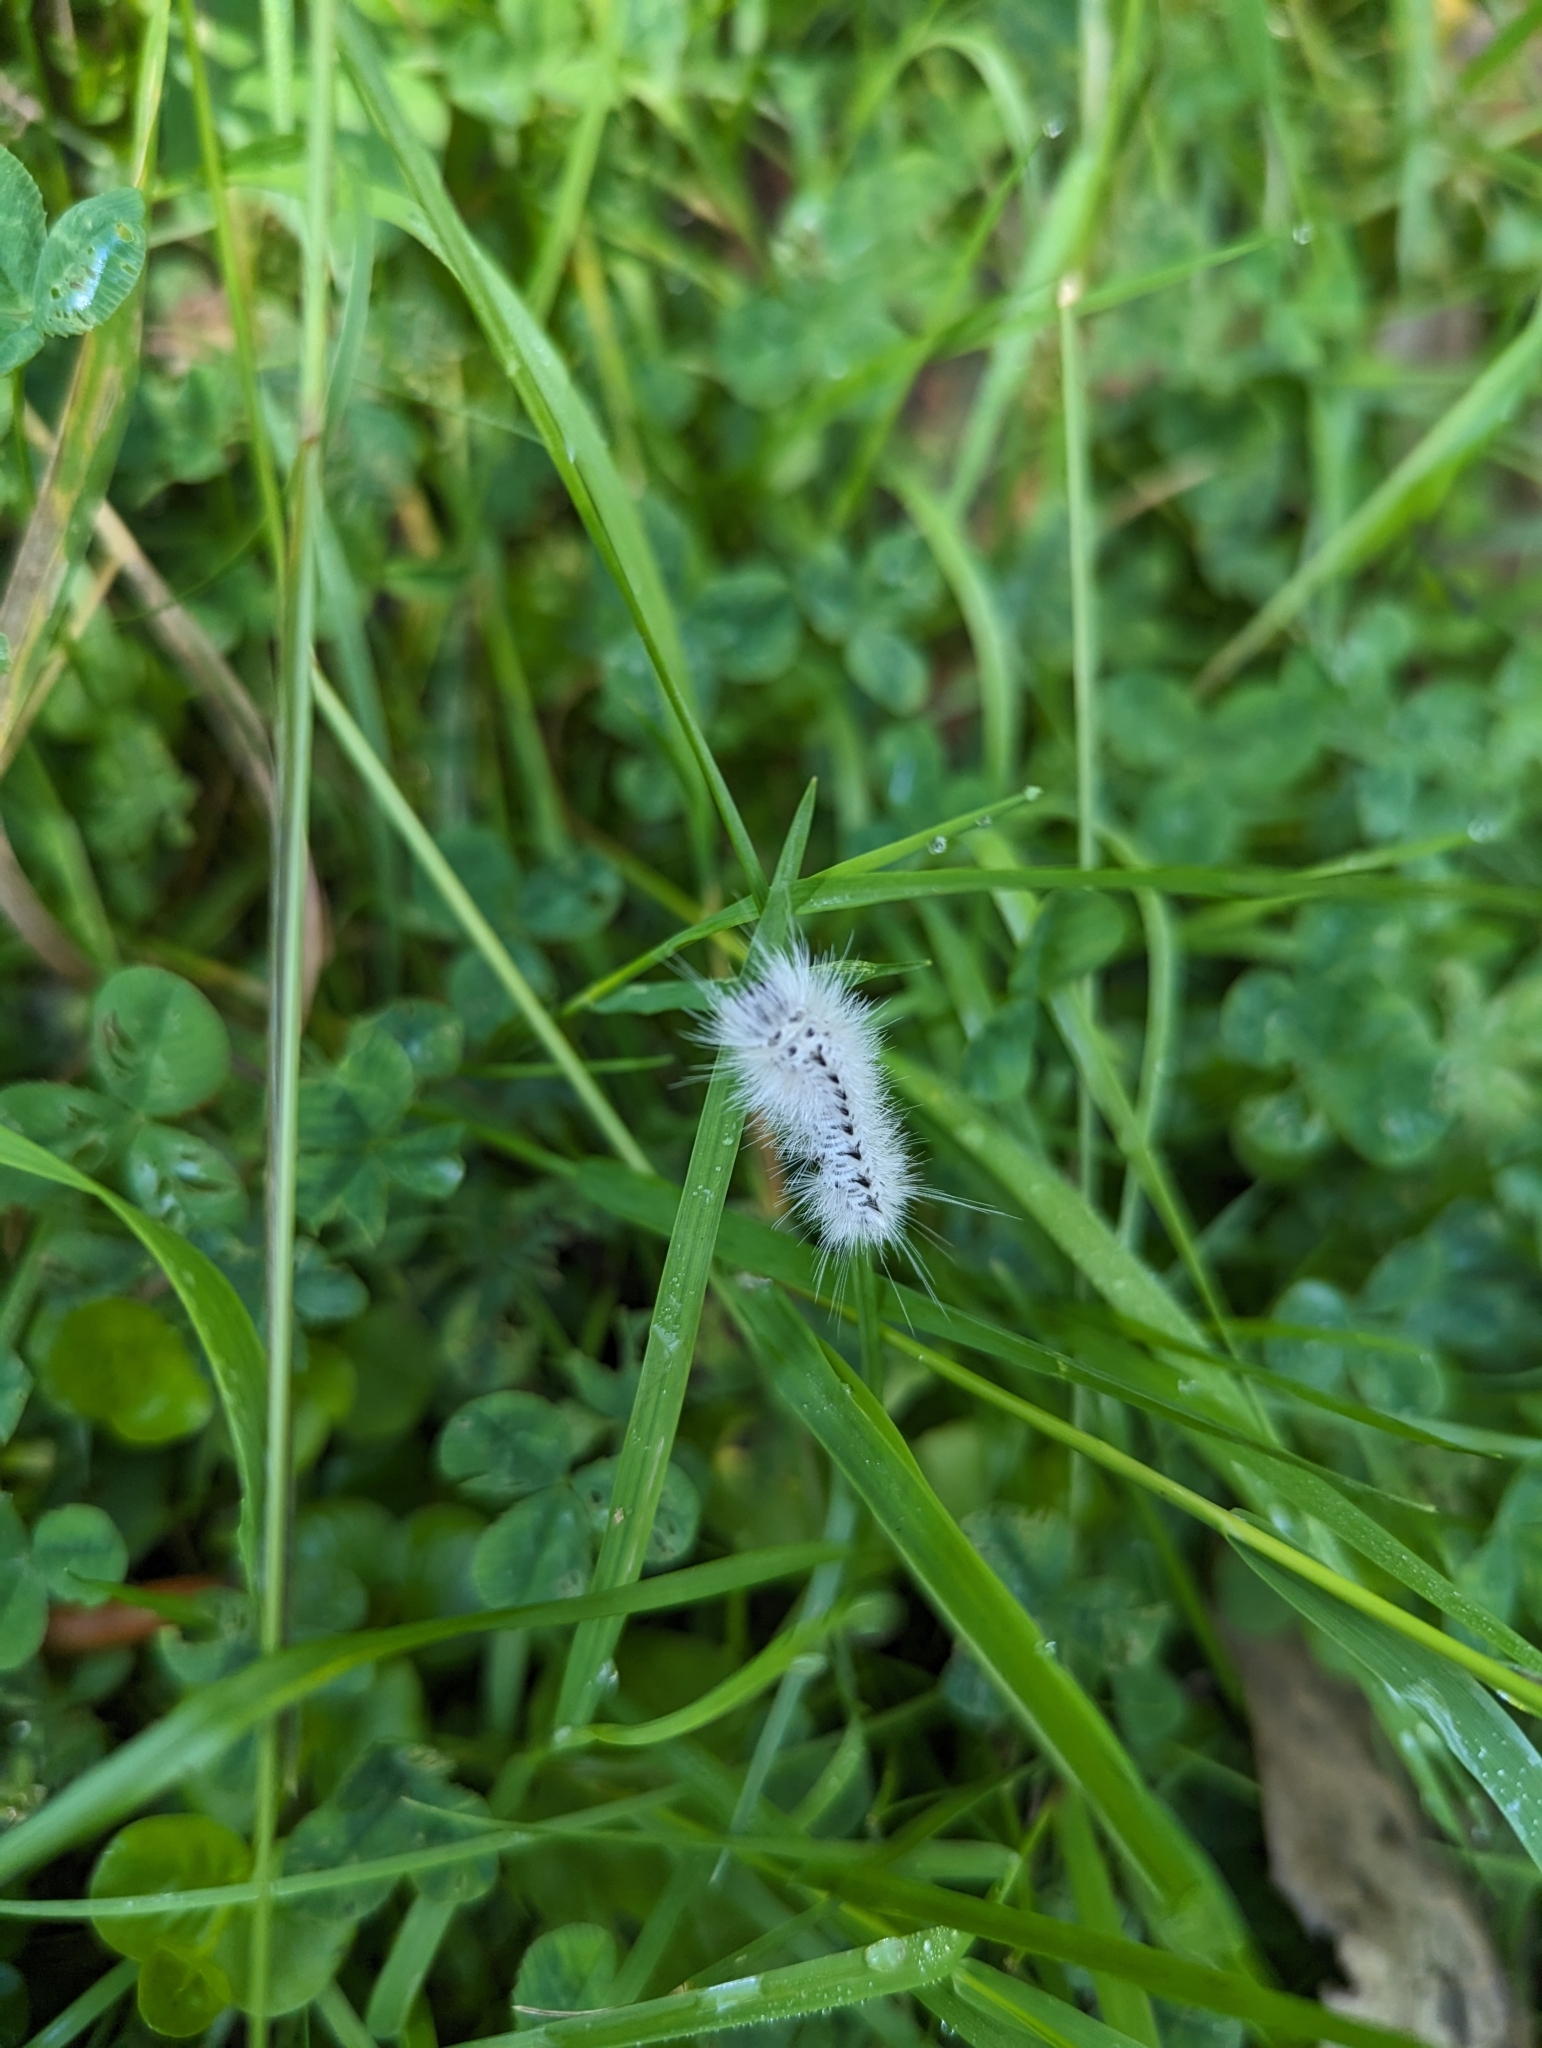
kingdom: Animalia
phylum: Arthropoda
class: Insecta
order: Lepidoptera
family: Erebidae
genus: Lophocampa
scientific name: Lophocampa caryae
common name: Hickory tussock moth
